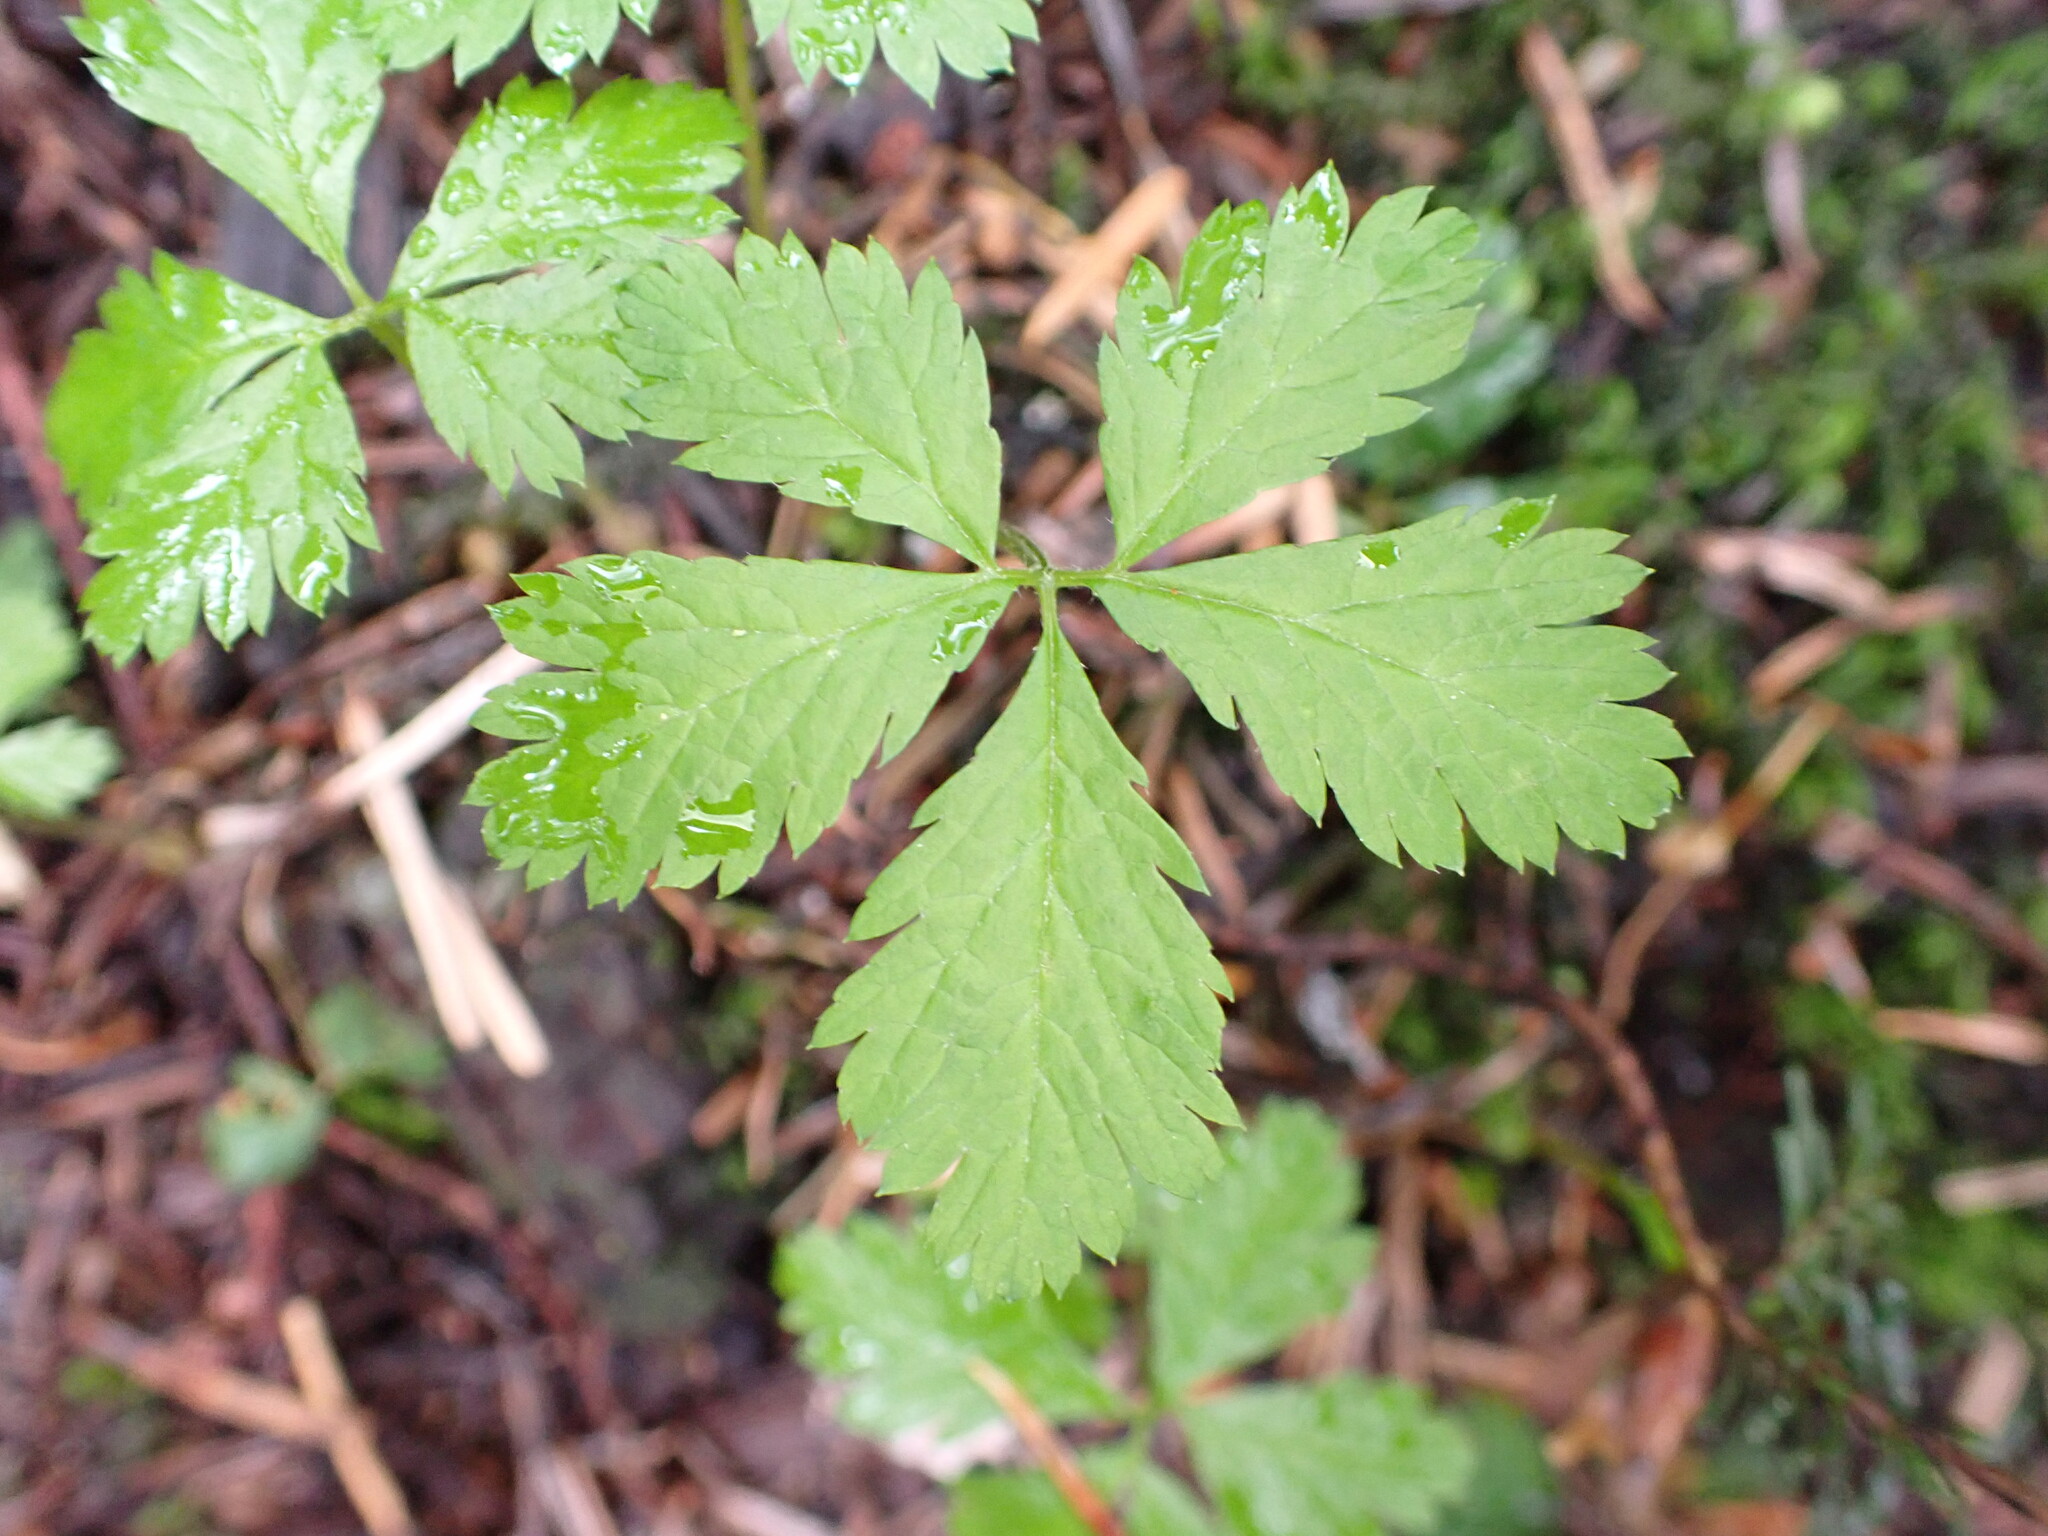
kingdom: Plantae
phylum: Tracheophyta
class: Magnoliopsida
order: Rosales
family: Rosaceae
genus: Rubus
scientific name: Rubus pedatus
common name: Creeping raspberry
